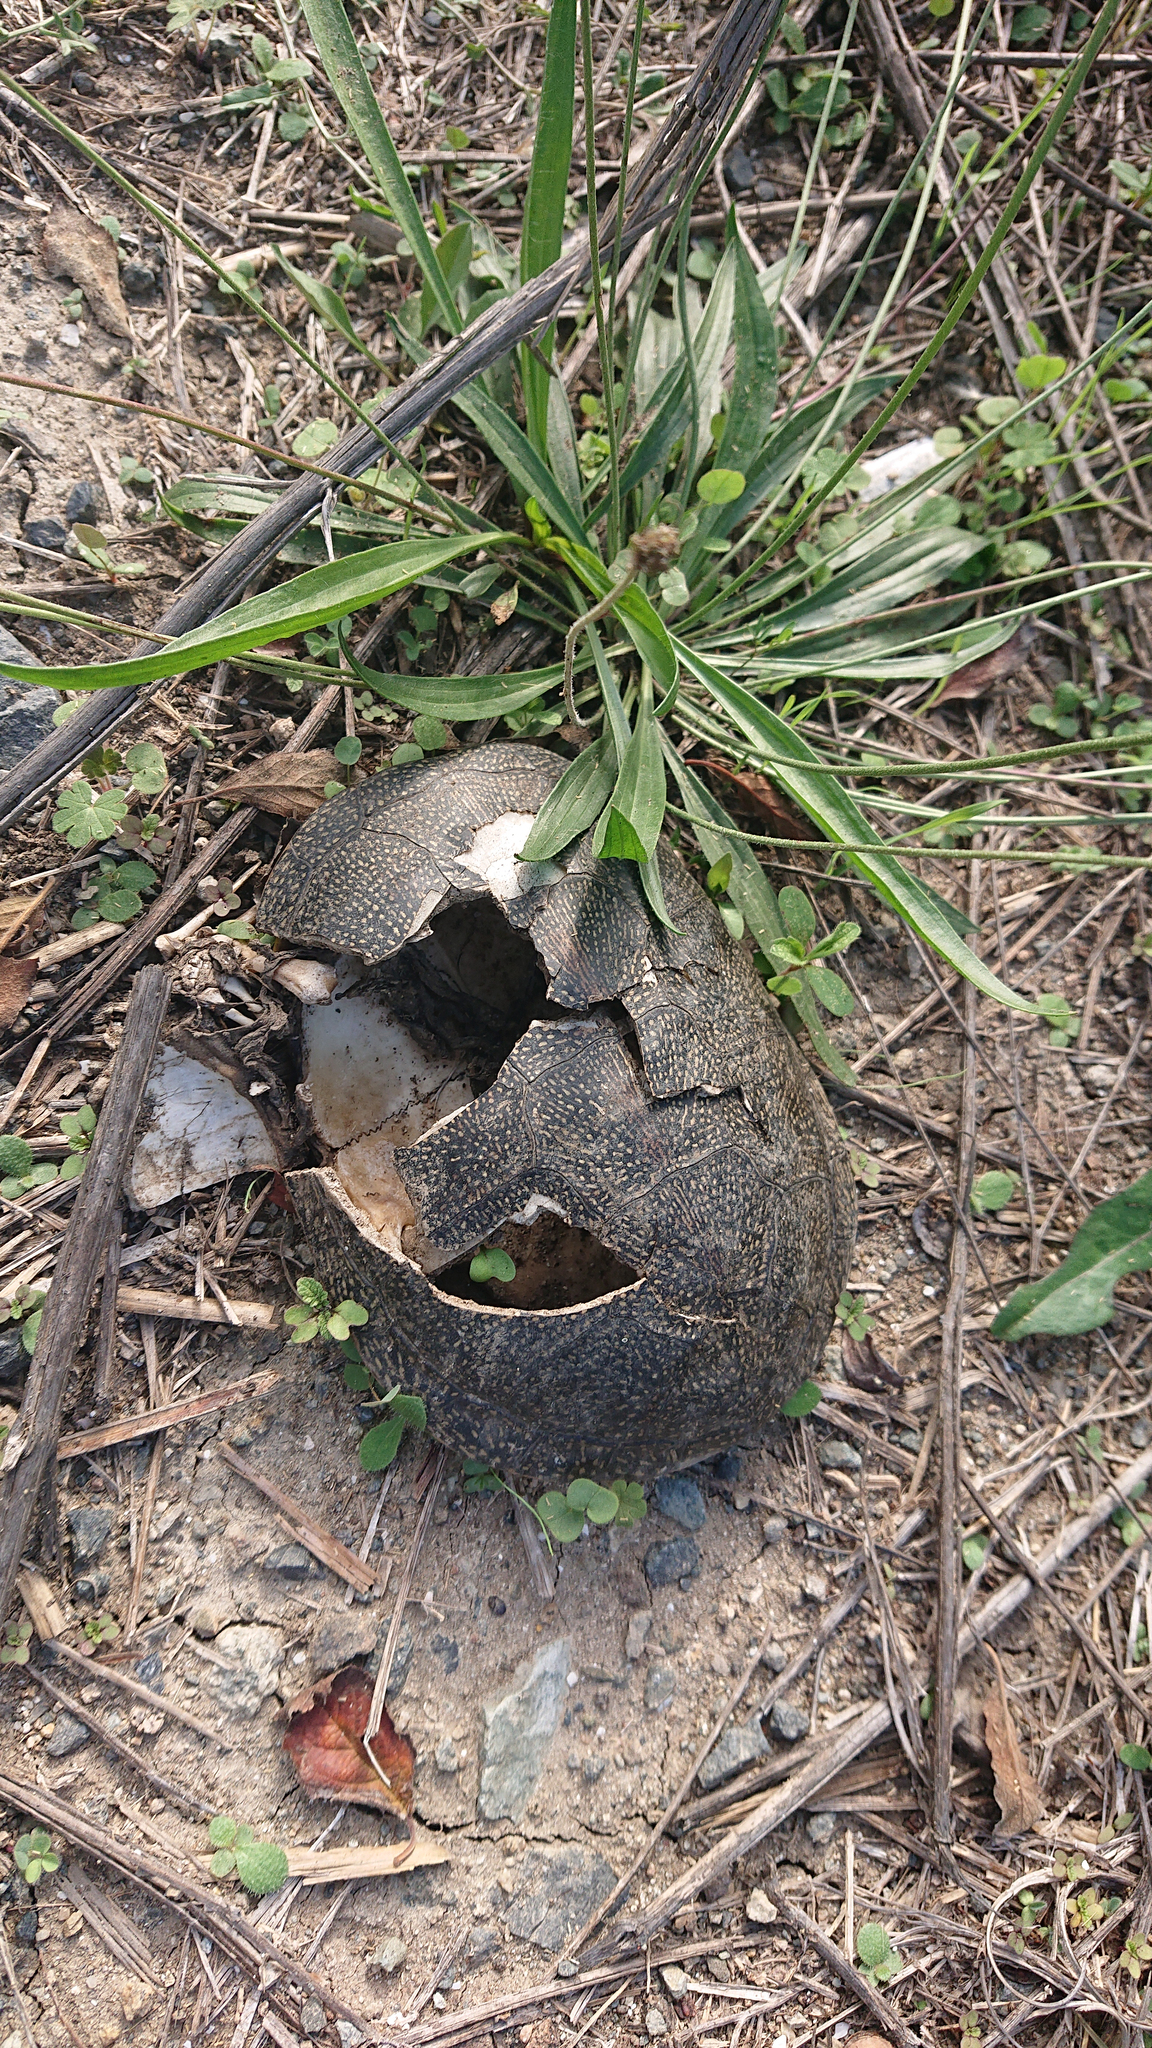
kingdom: Animalia
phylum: Chordata
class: Testudines
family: Emydidae
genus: Emys
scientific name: Emys orbicularis
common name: European pond turtle
